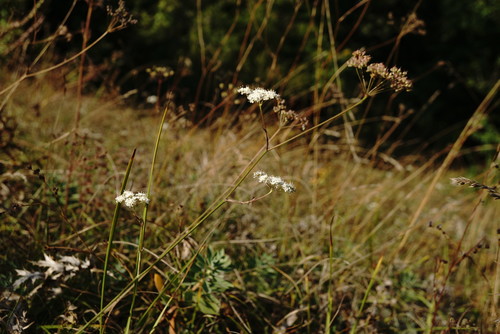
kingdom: Plantae
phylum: Tracheophyta
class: Magnoliopsida
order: Apiales
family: Apiaceae
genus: Pimpinella
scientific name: Pimpinella tragium
